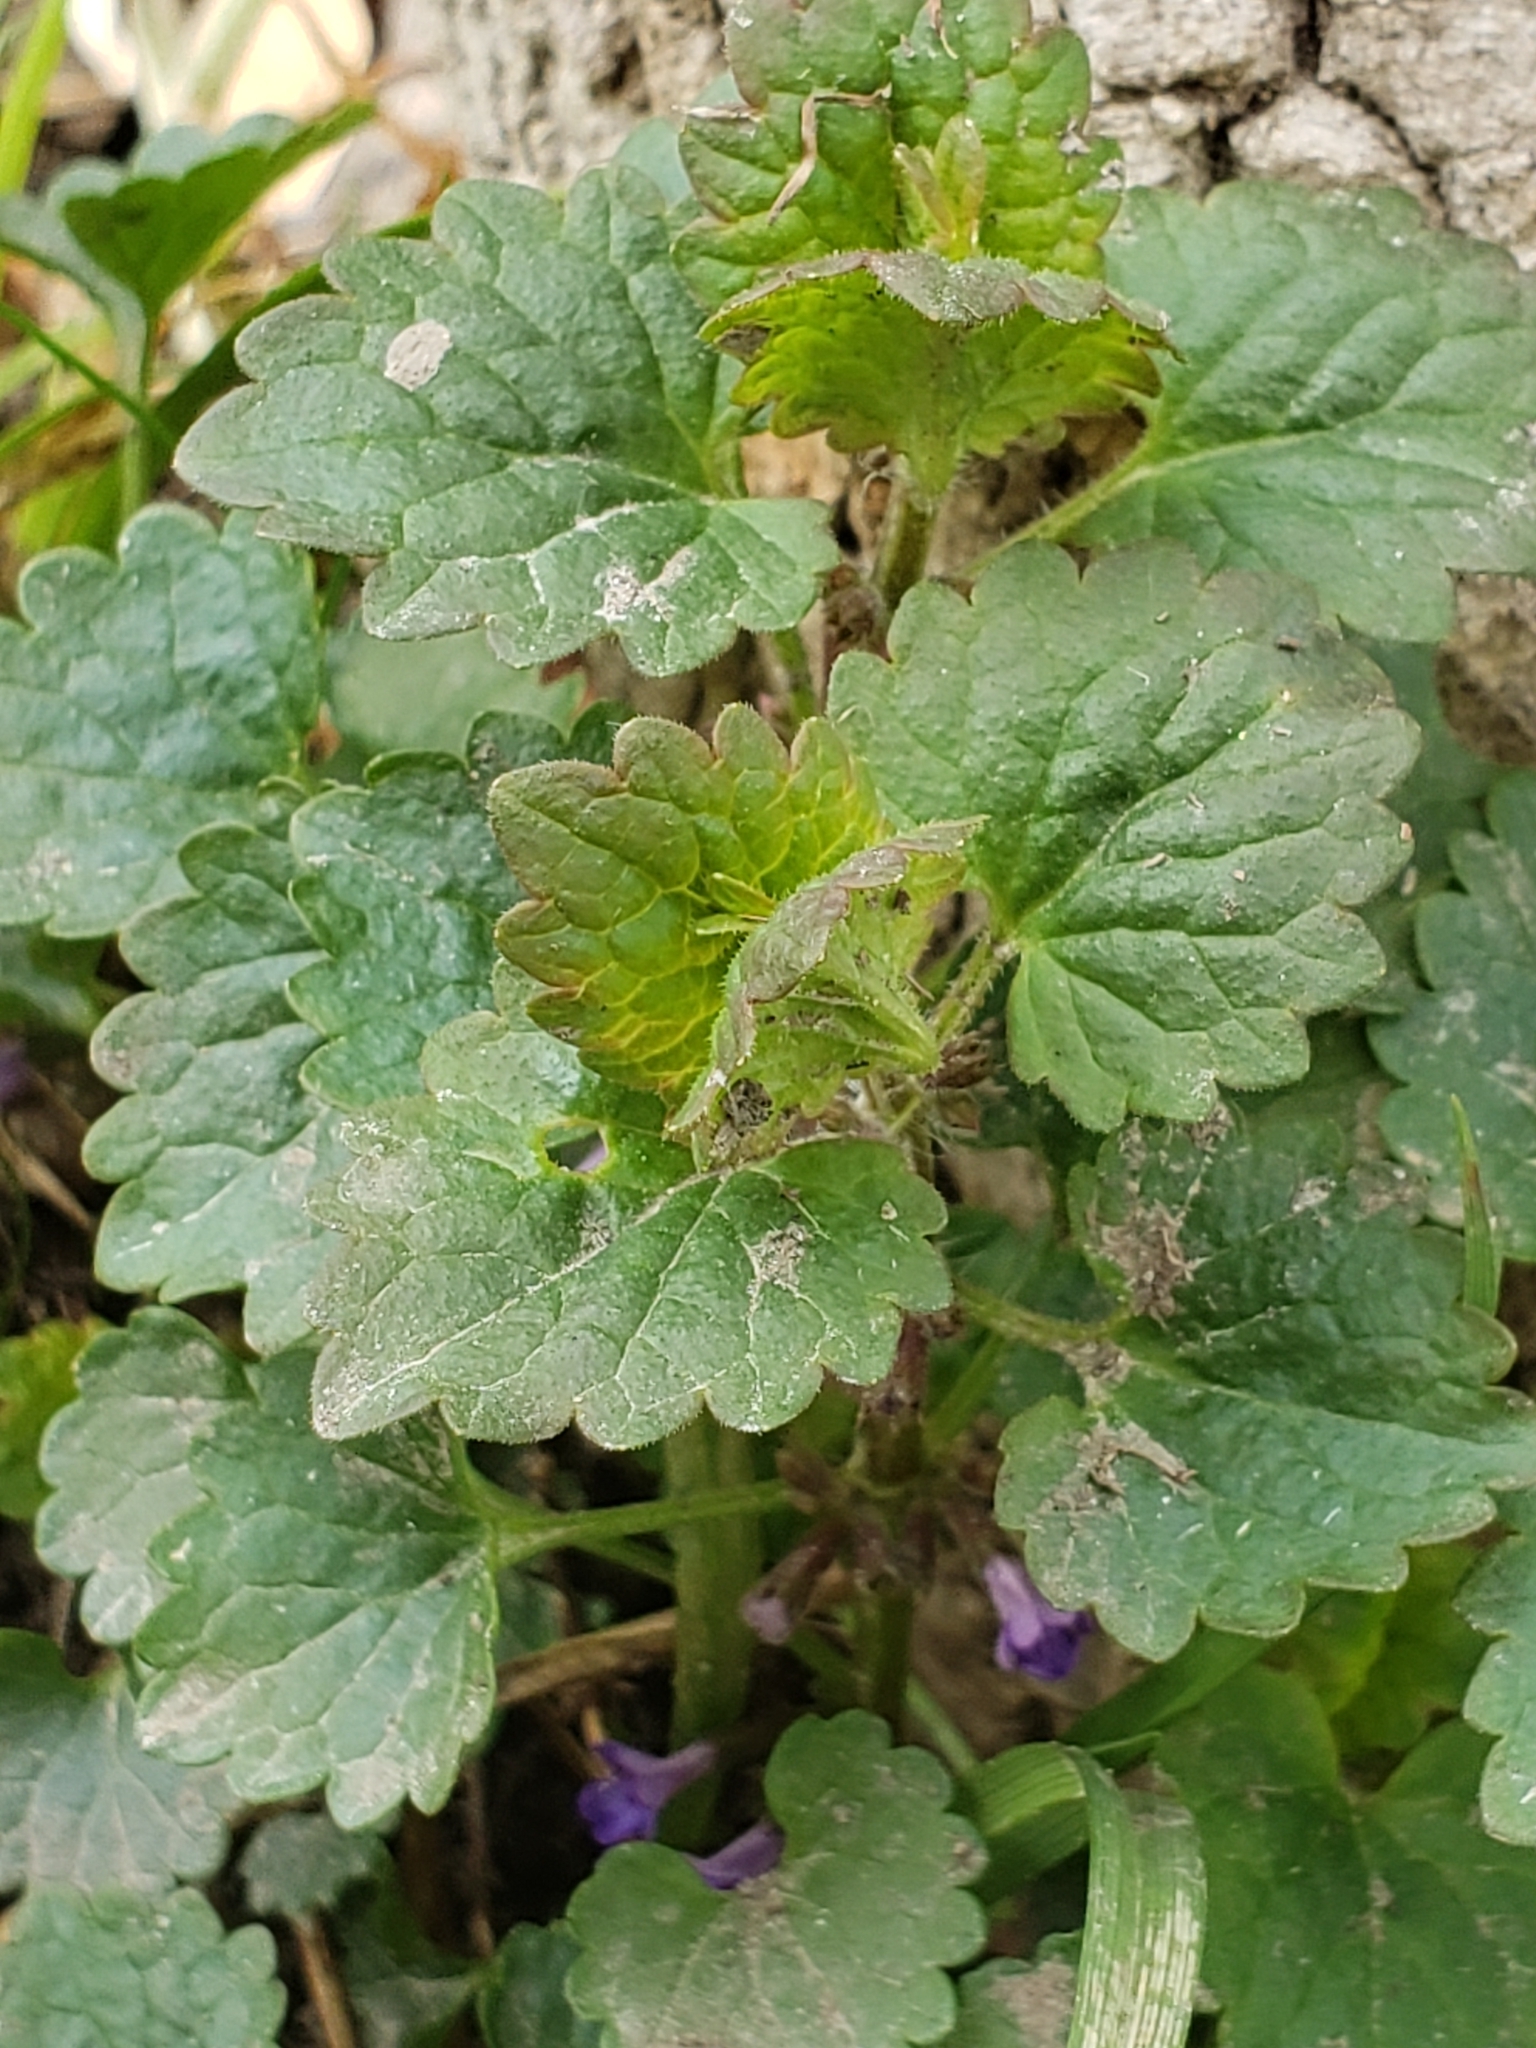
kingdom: Plantae
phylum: Tracheophyta
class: Magnoliopsida
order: Lamiales
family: Lamiaceae
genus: Glechoma
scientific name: Glechoma hederacea
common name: Ground ivy
